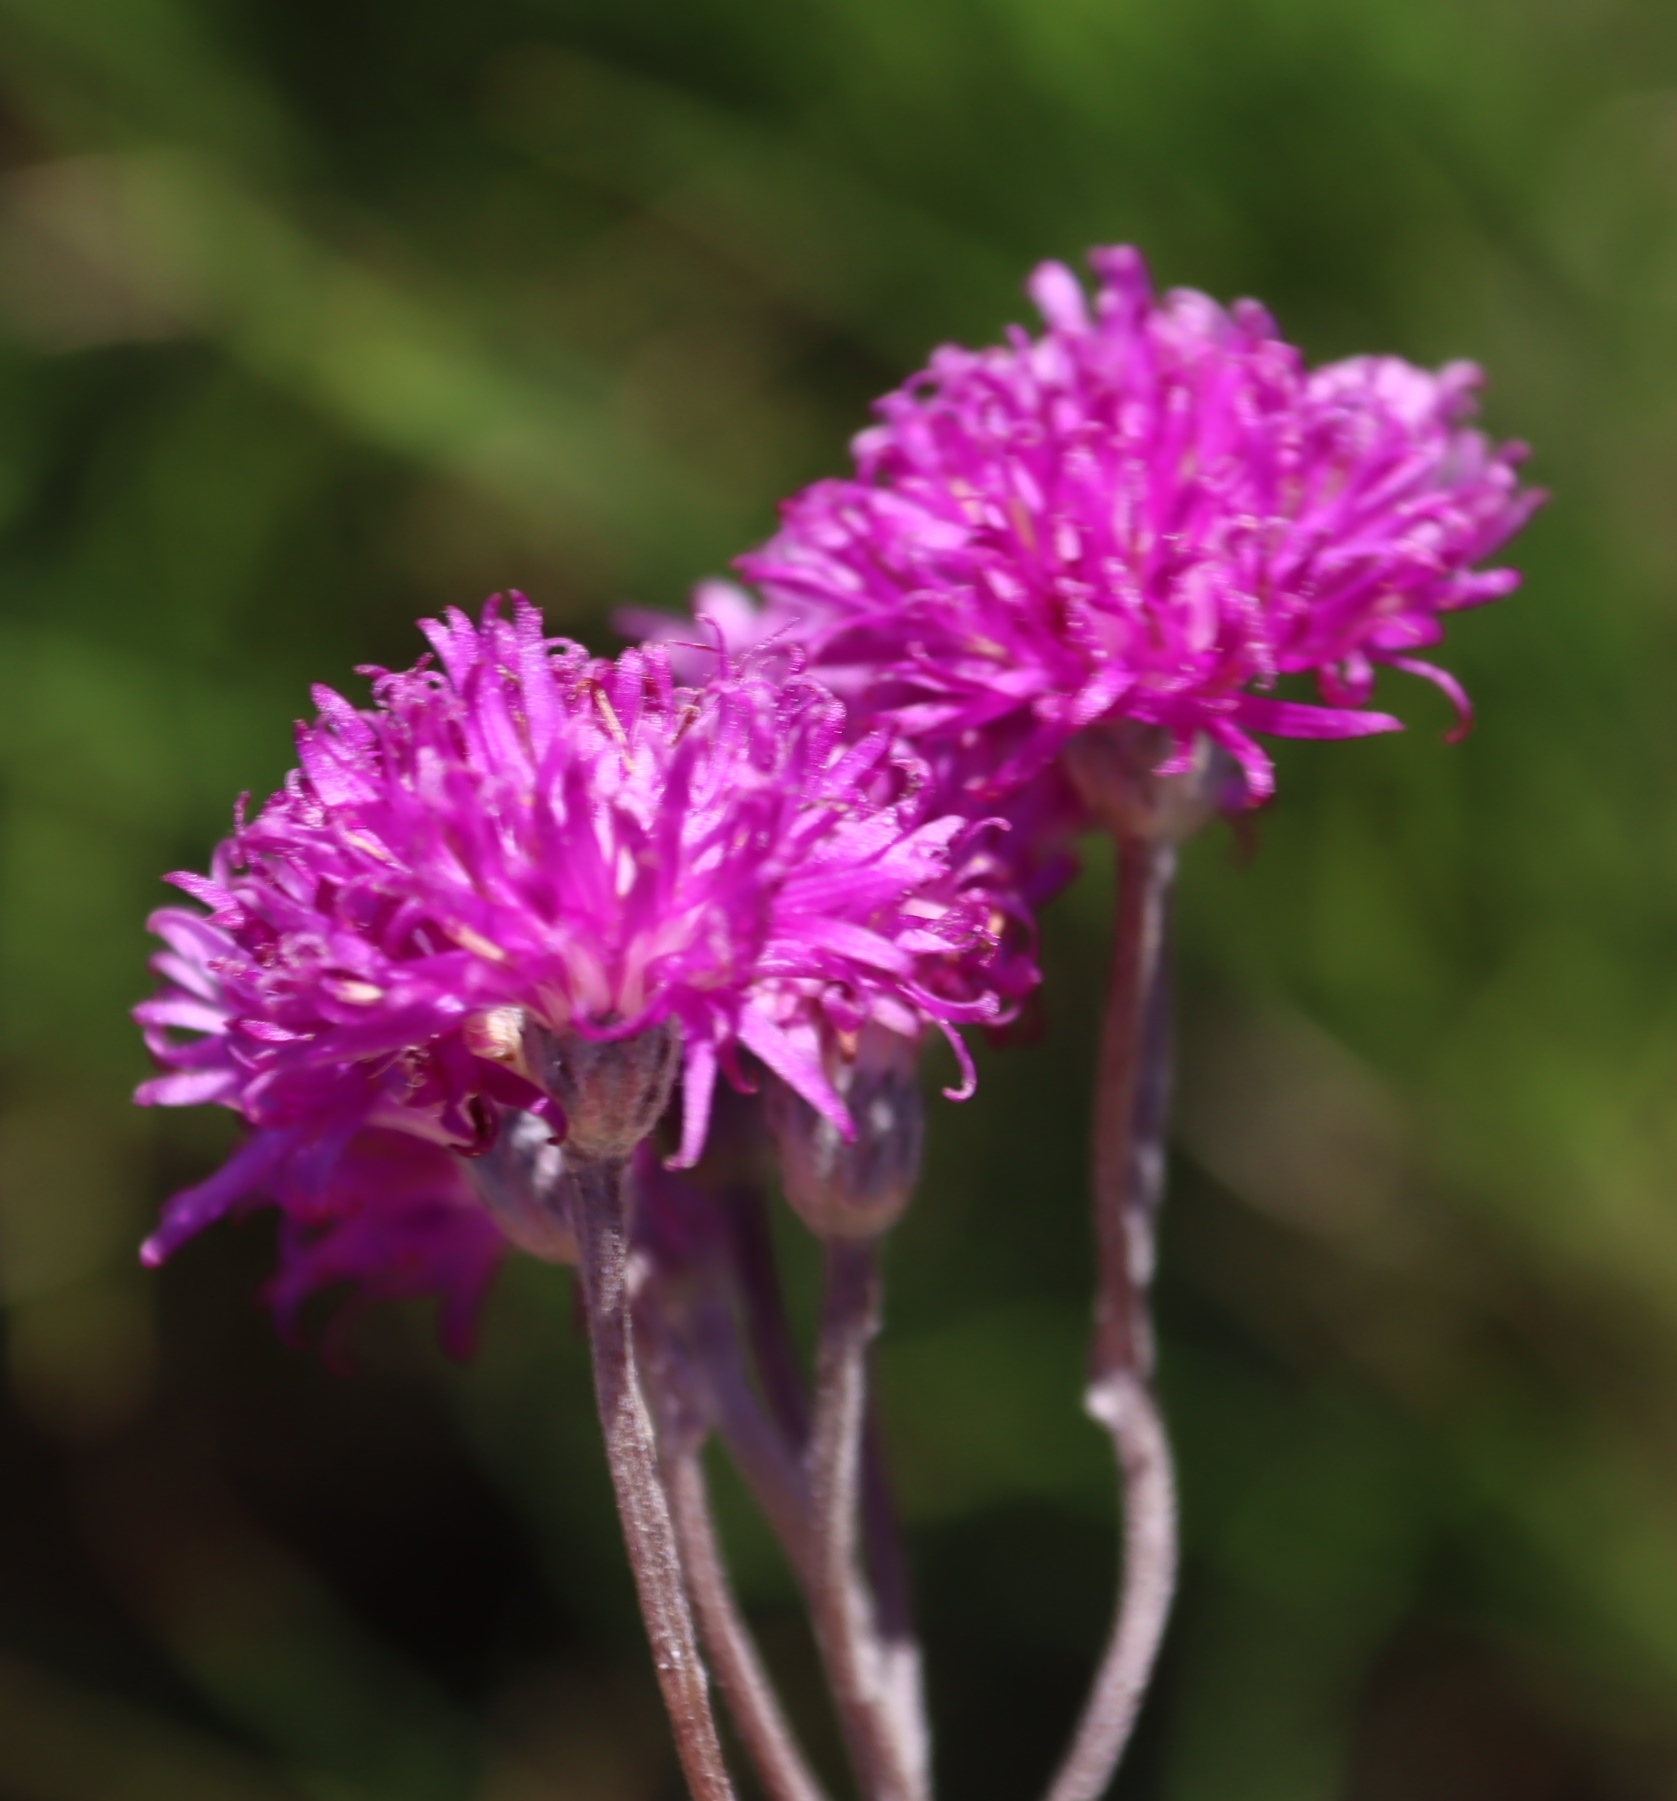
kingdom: Plantae
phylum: Tracheophyta
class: Magnoliopsida
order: Asterales
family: Asteraceae
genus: Hilliardiella
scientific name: Hilliardiella capensis
